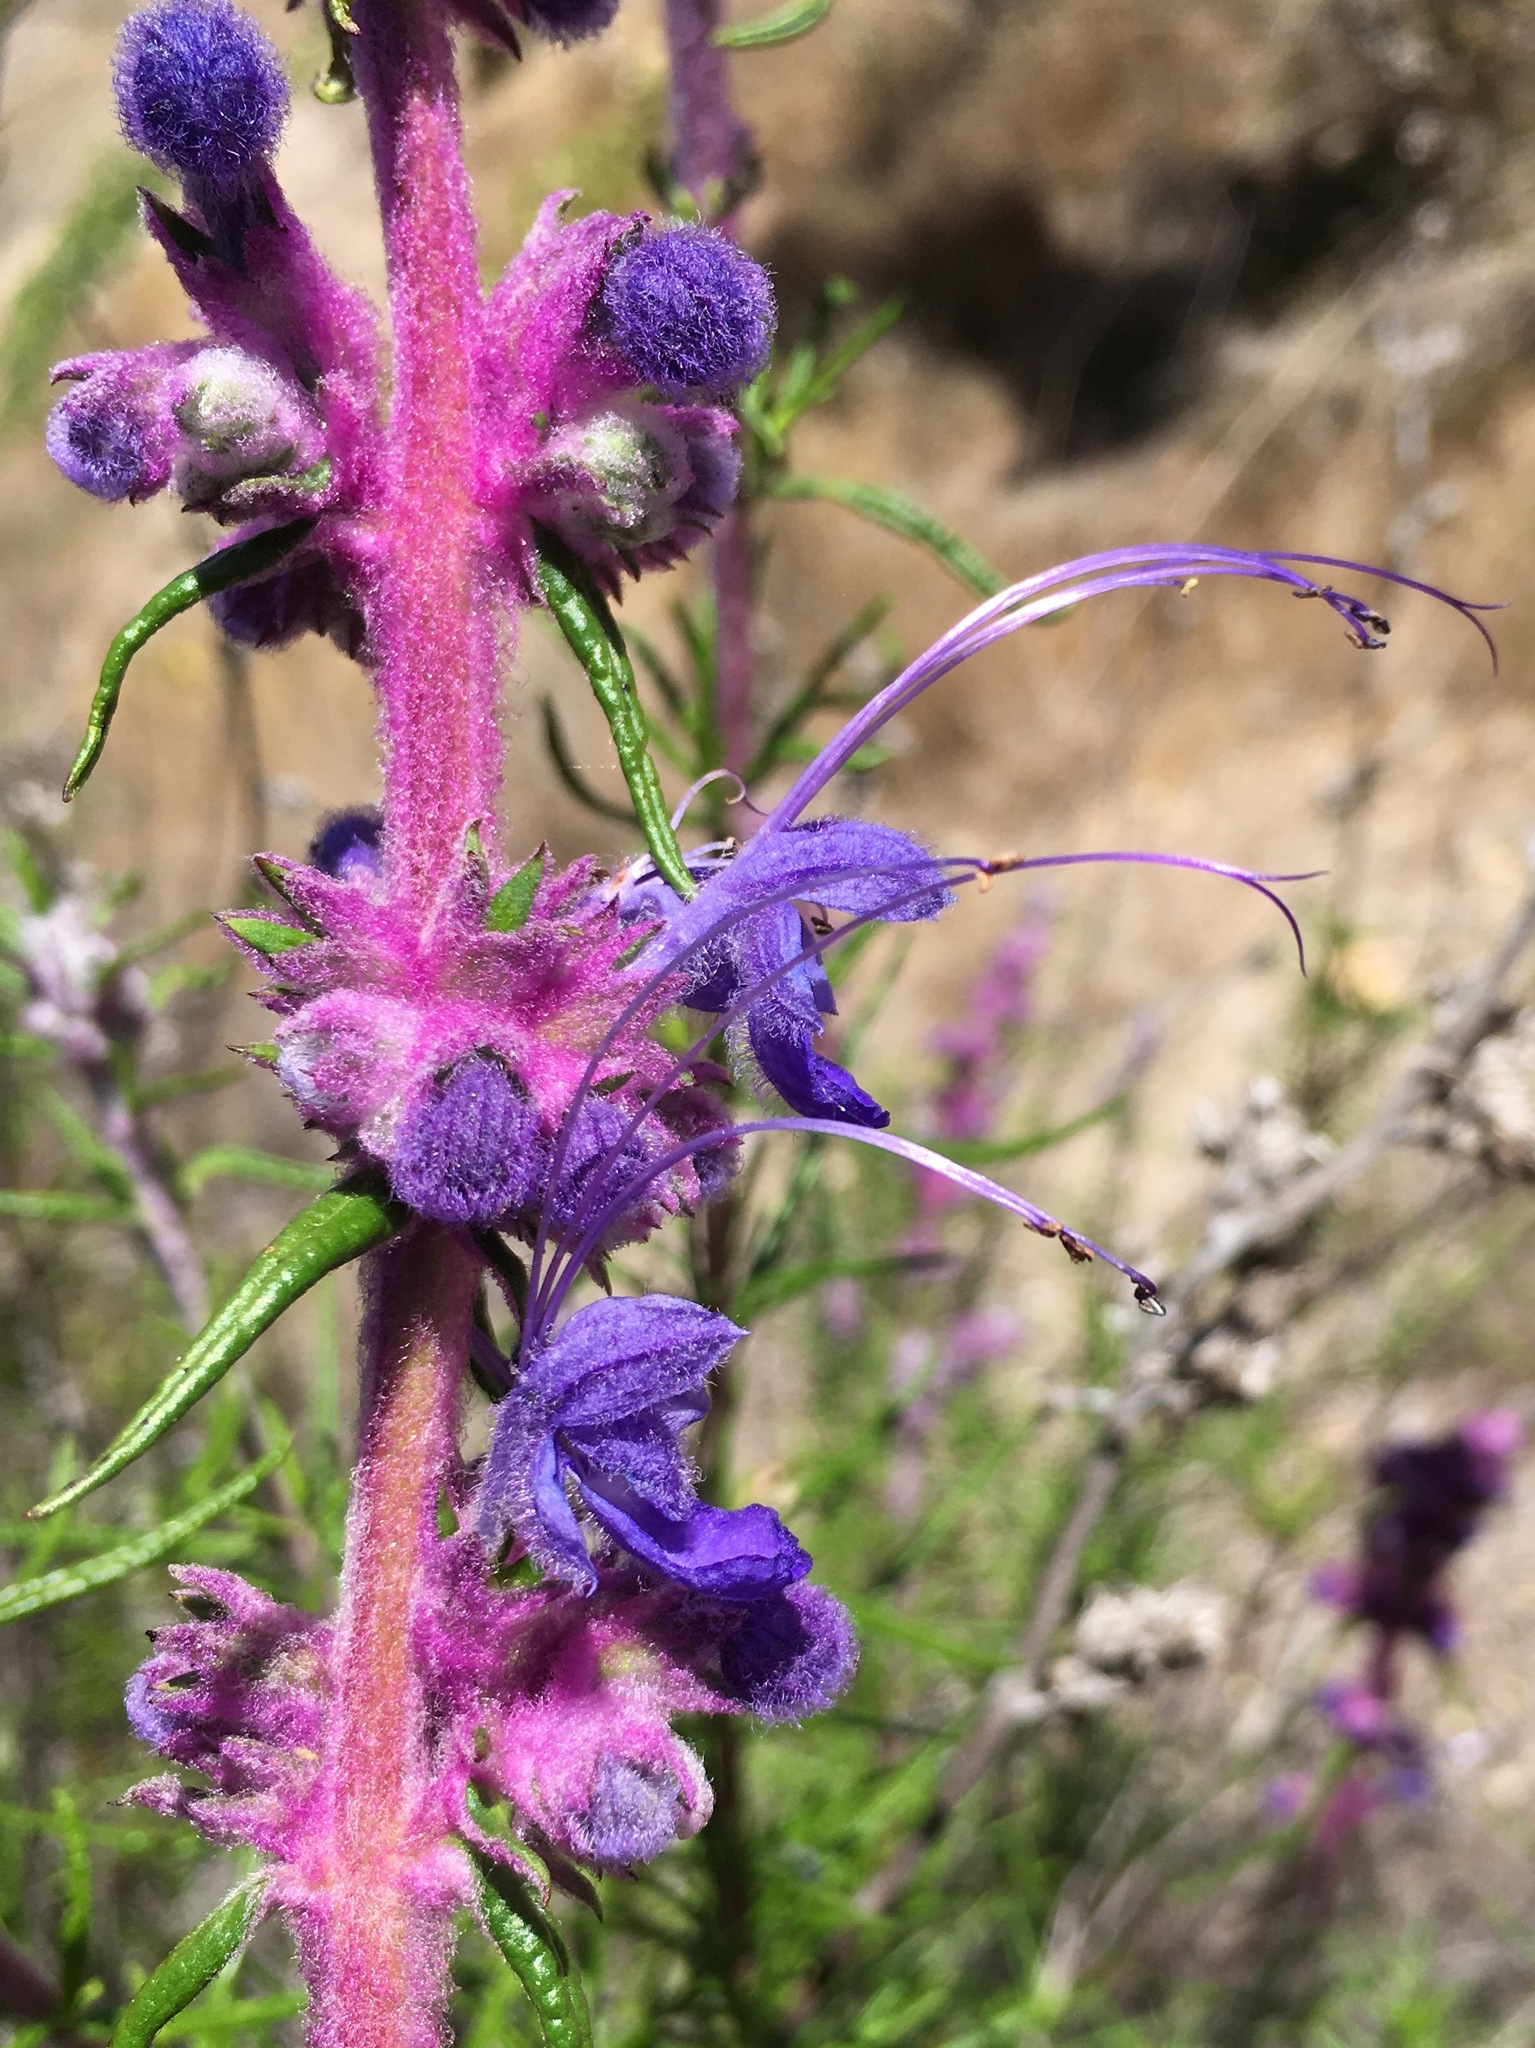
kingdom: Plantae
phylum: Tracheophyta
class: Magnoliopsida
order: Lamiales
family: Lamiaceae
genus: Trichostema
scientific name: Trichostema lanatum
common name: Woolly bluecurls
